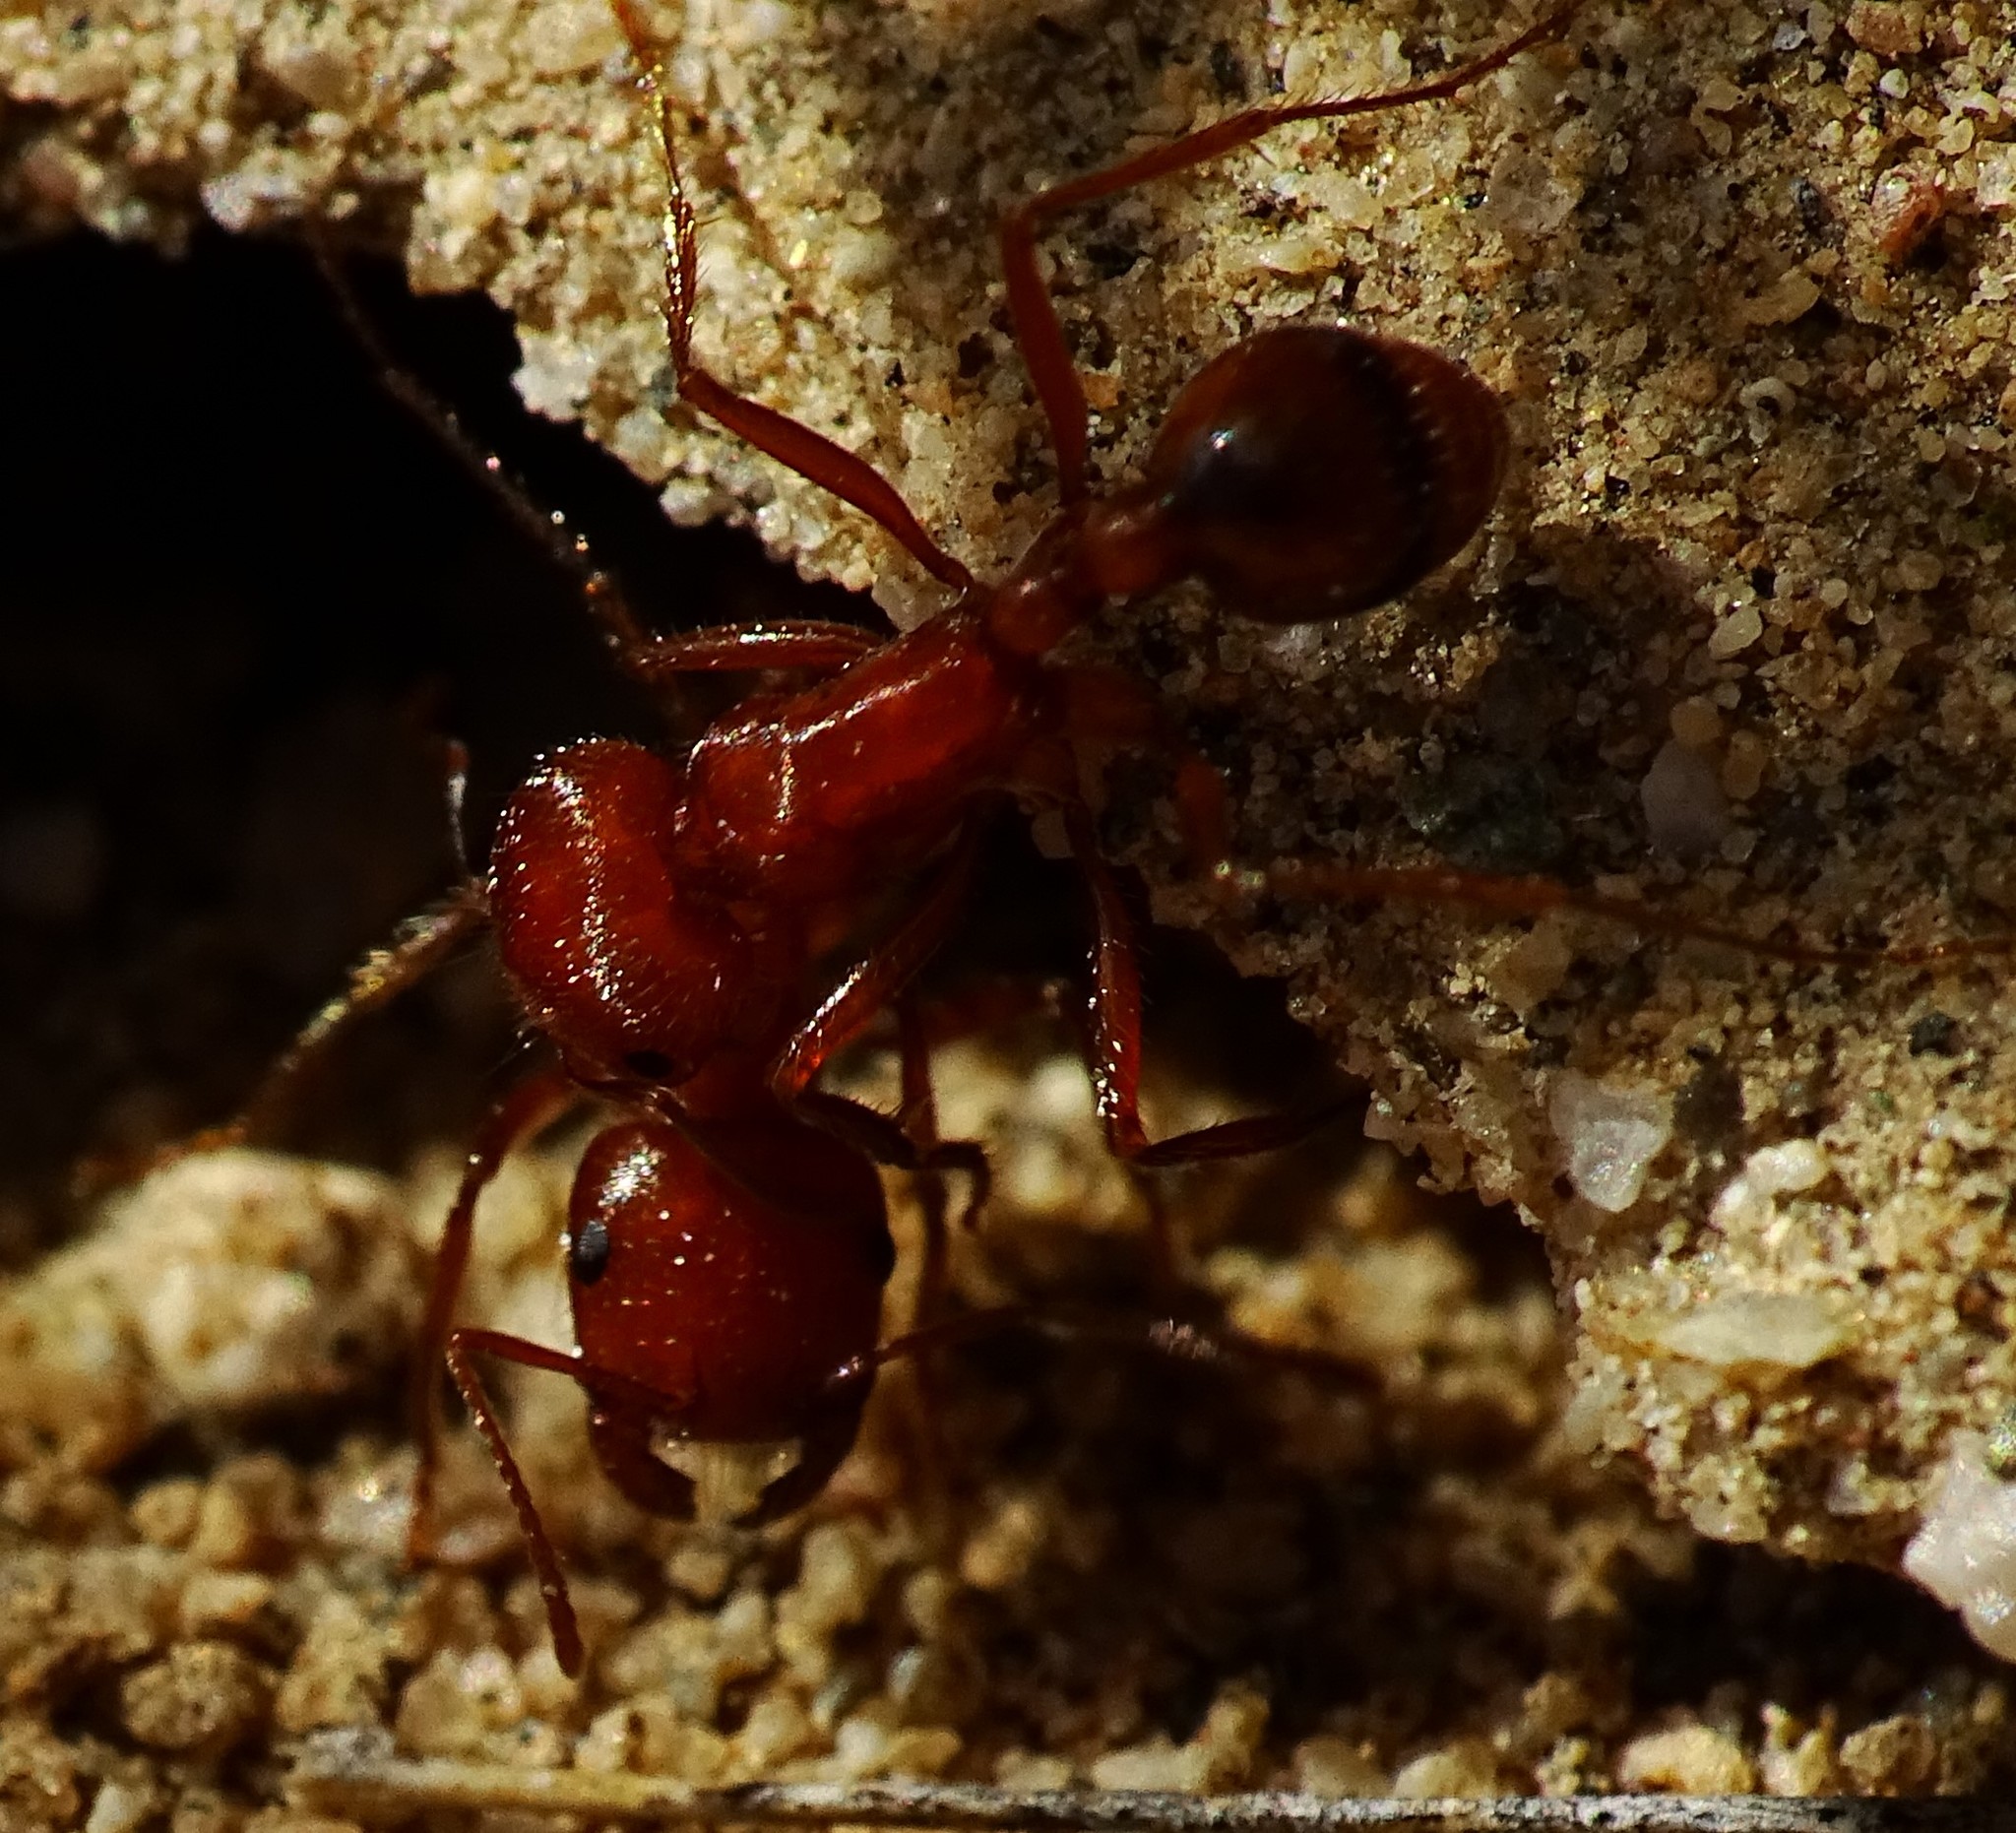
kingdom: Animalia
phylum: Arthropoda
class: Insecta
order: Hymenoptera
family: Formicidae
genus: Pogonomyrmex
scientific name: Pogonomyrmex maricopa
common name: Maricopa harvester ant
